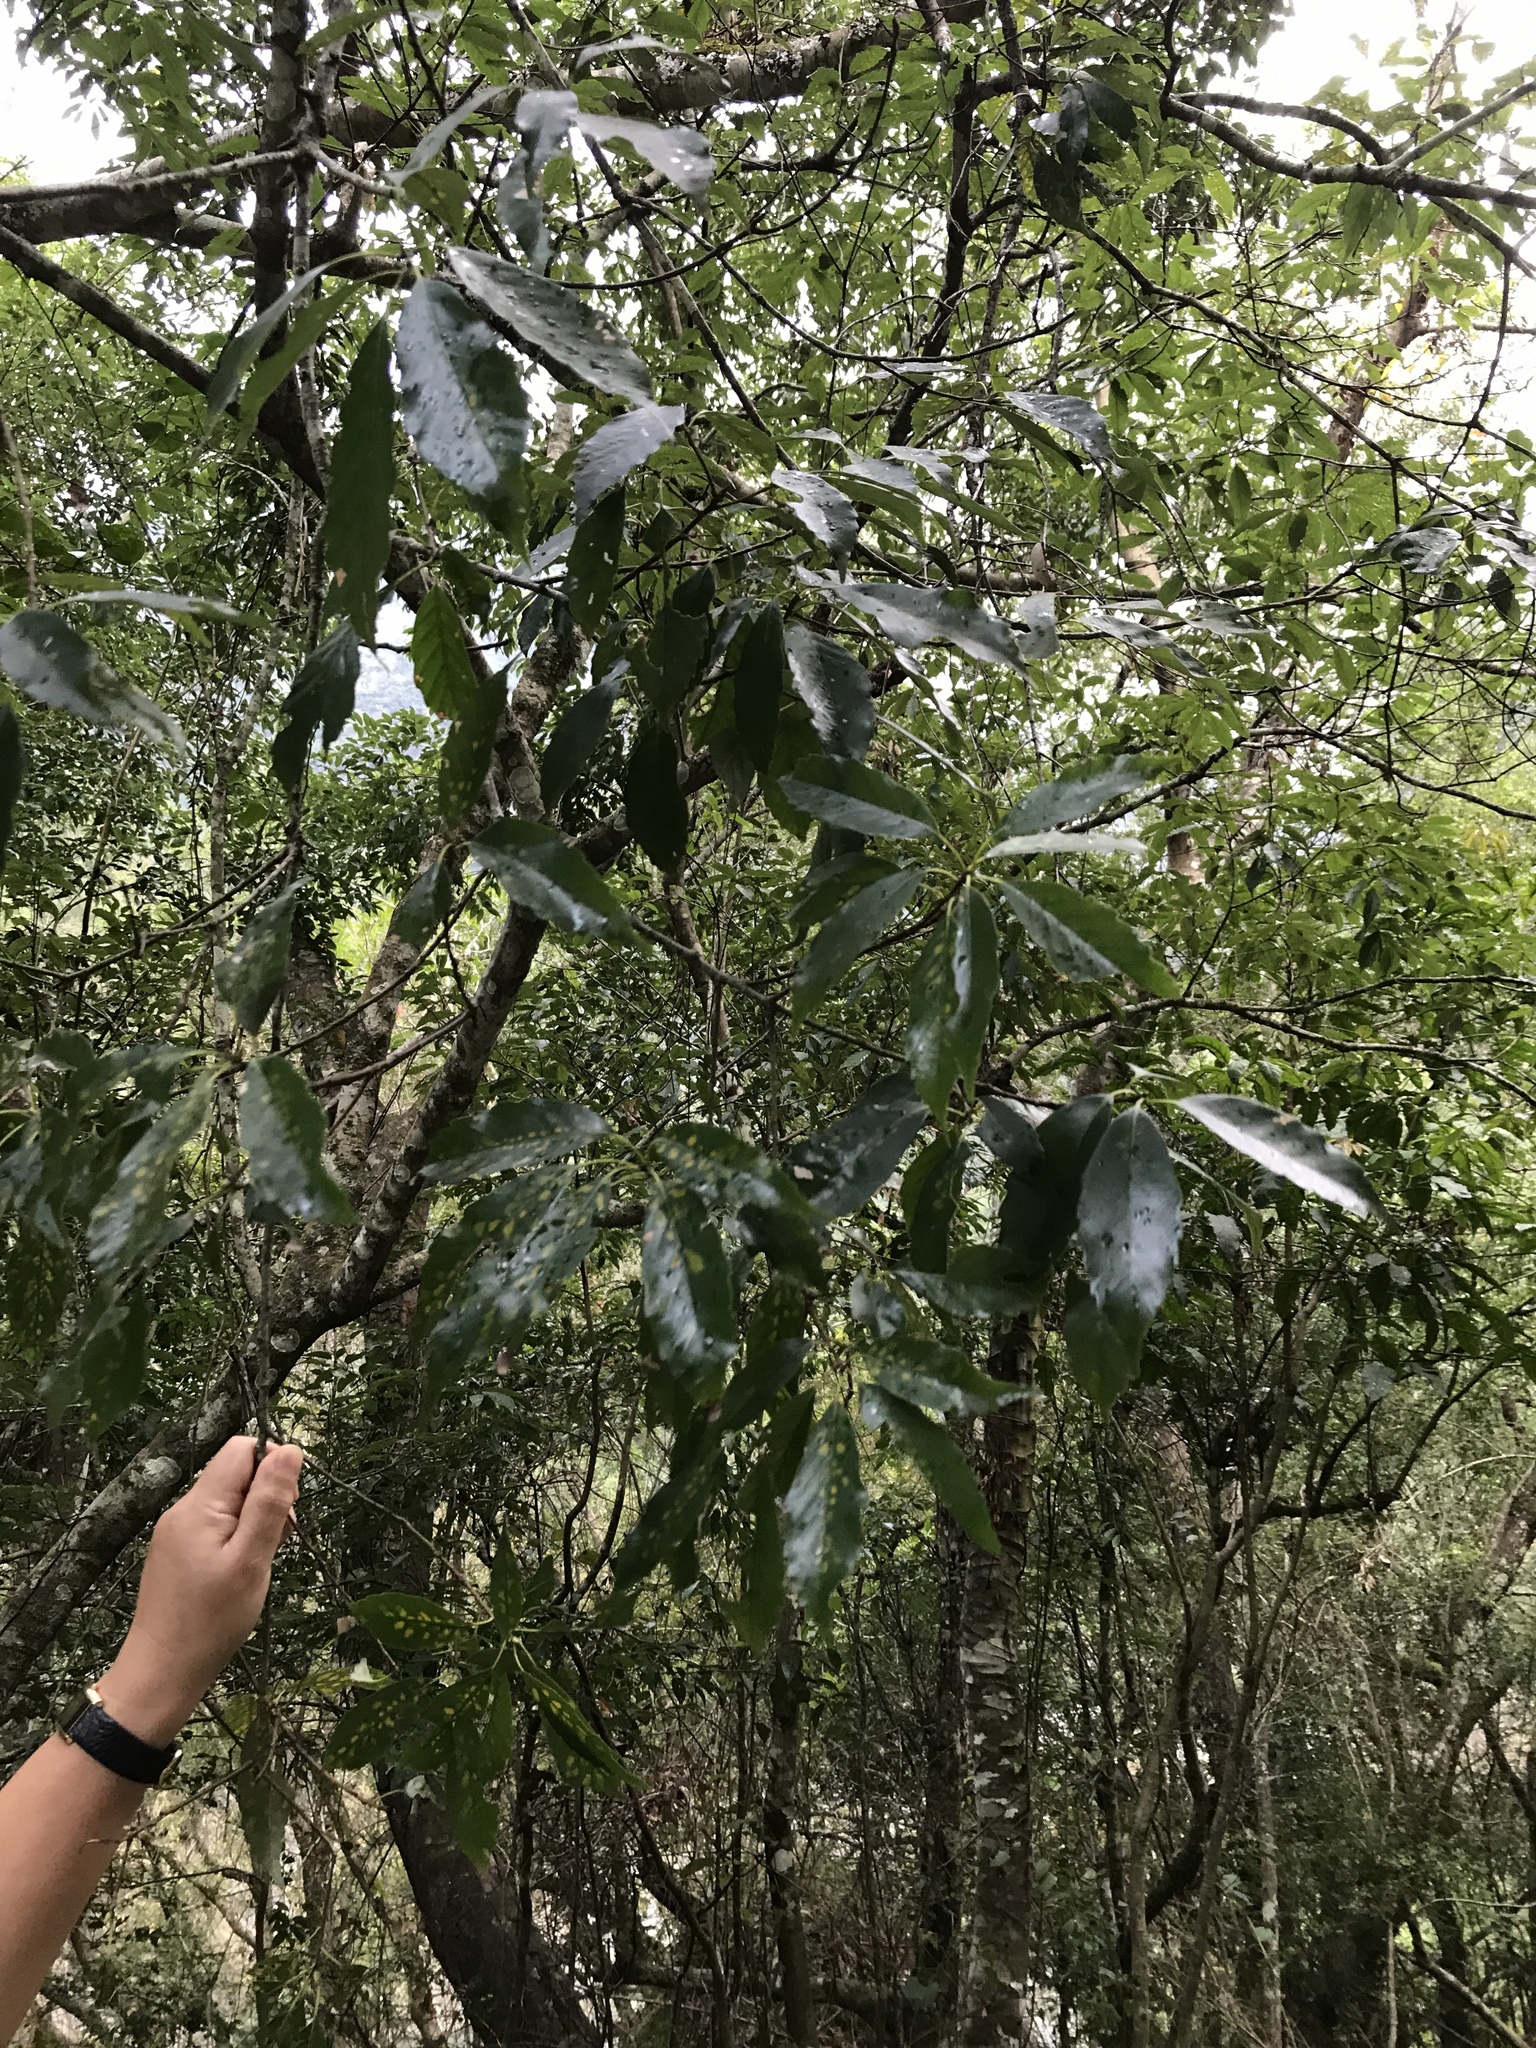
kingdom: Plantae
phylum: Tracheophyta
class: Magnoliopsida
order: Fagales
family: Fagaceae
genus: Quercus
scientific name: Quercus glauca
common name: Ring-cup oak
